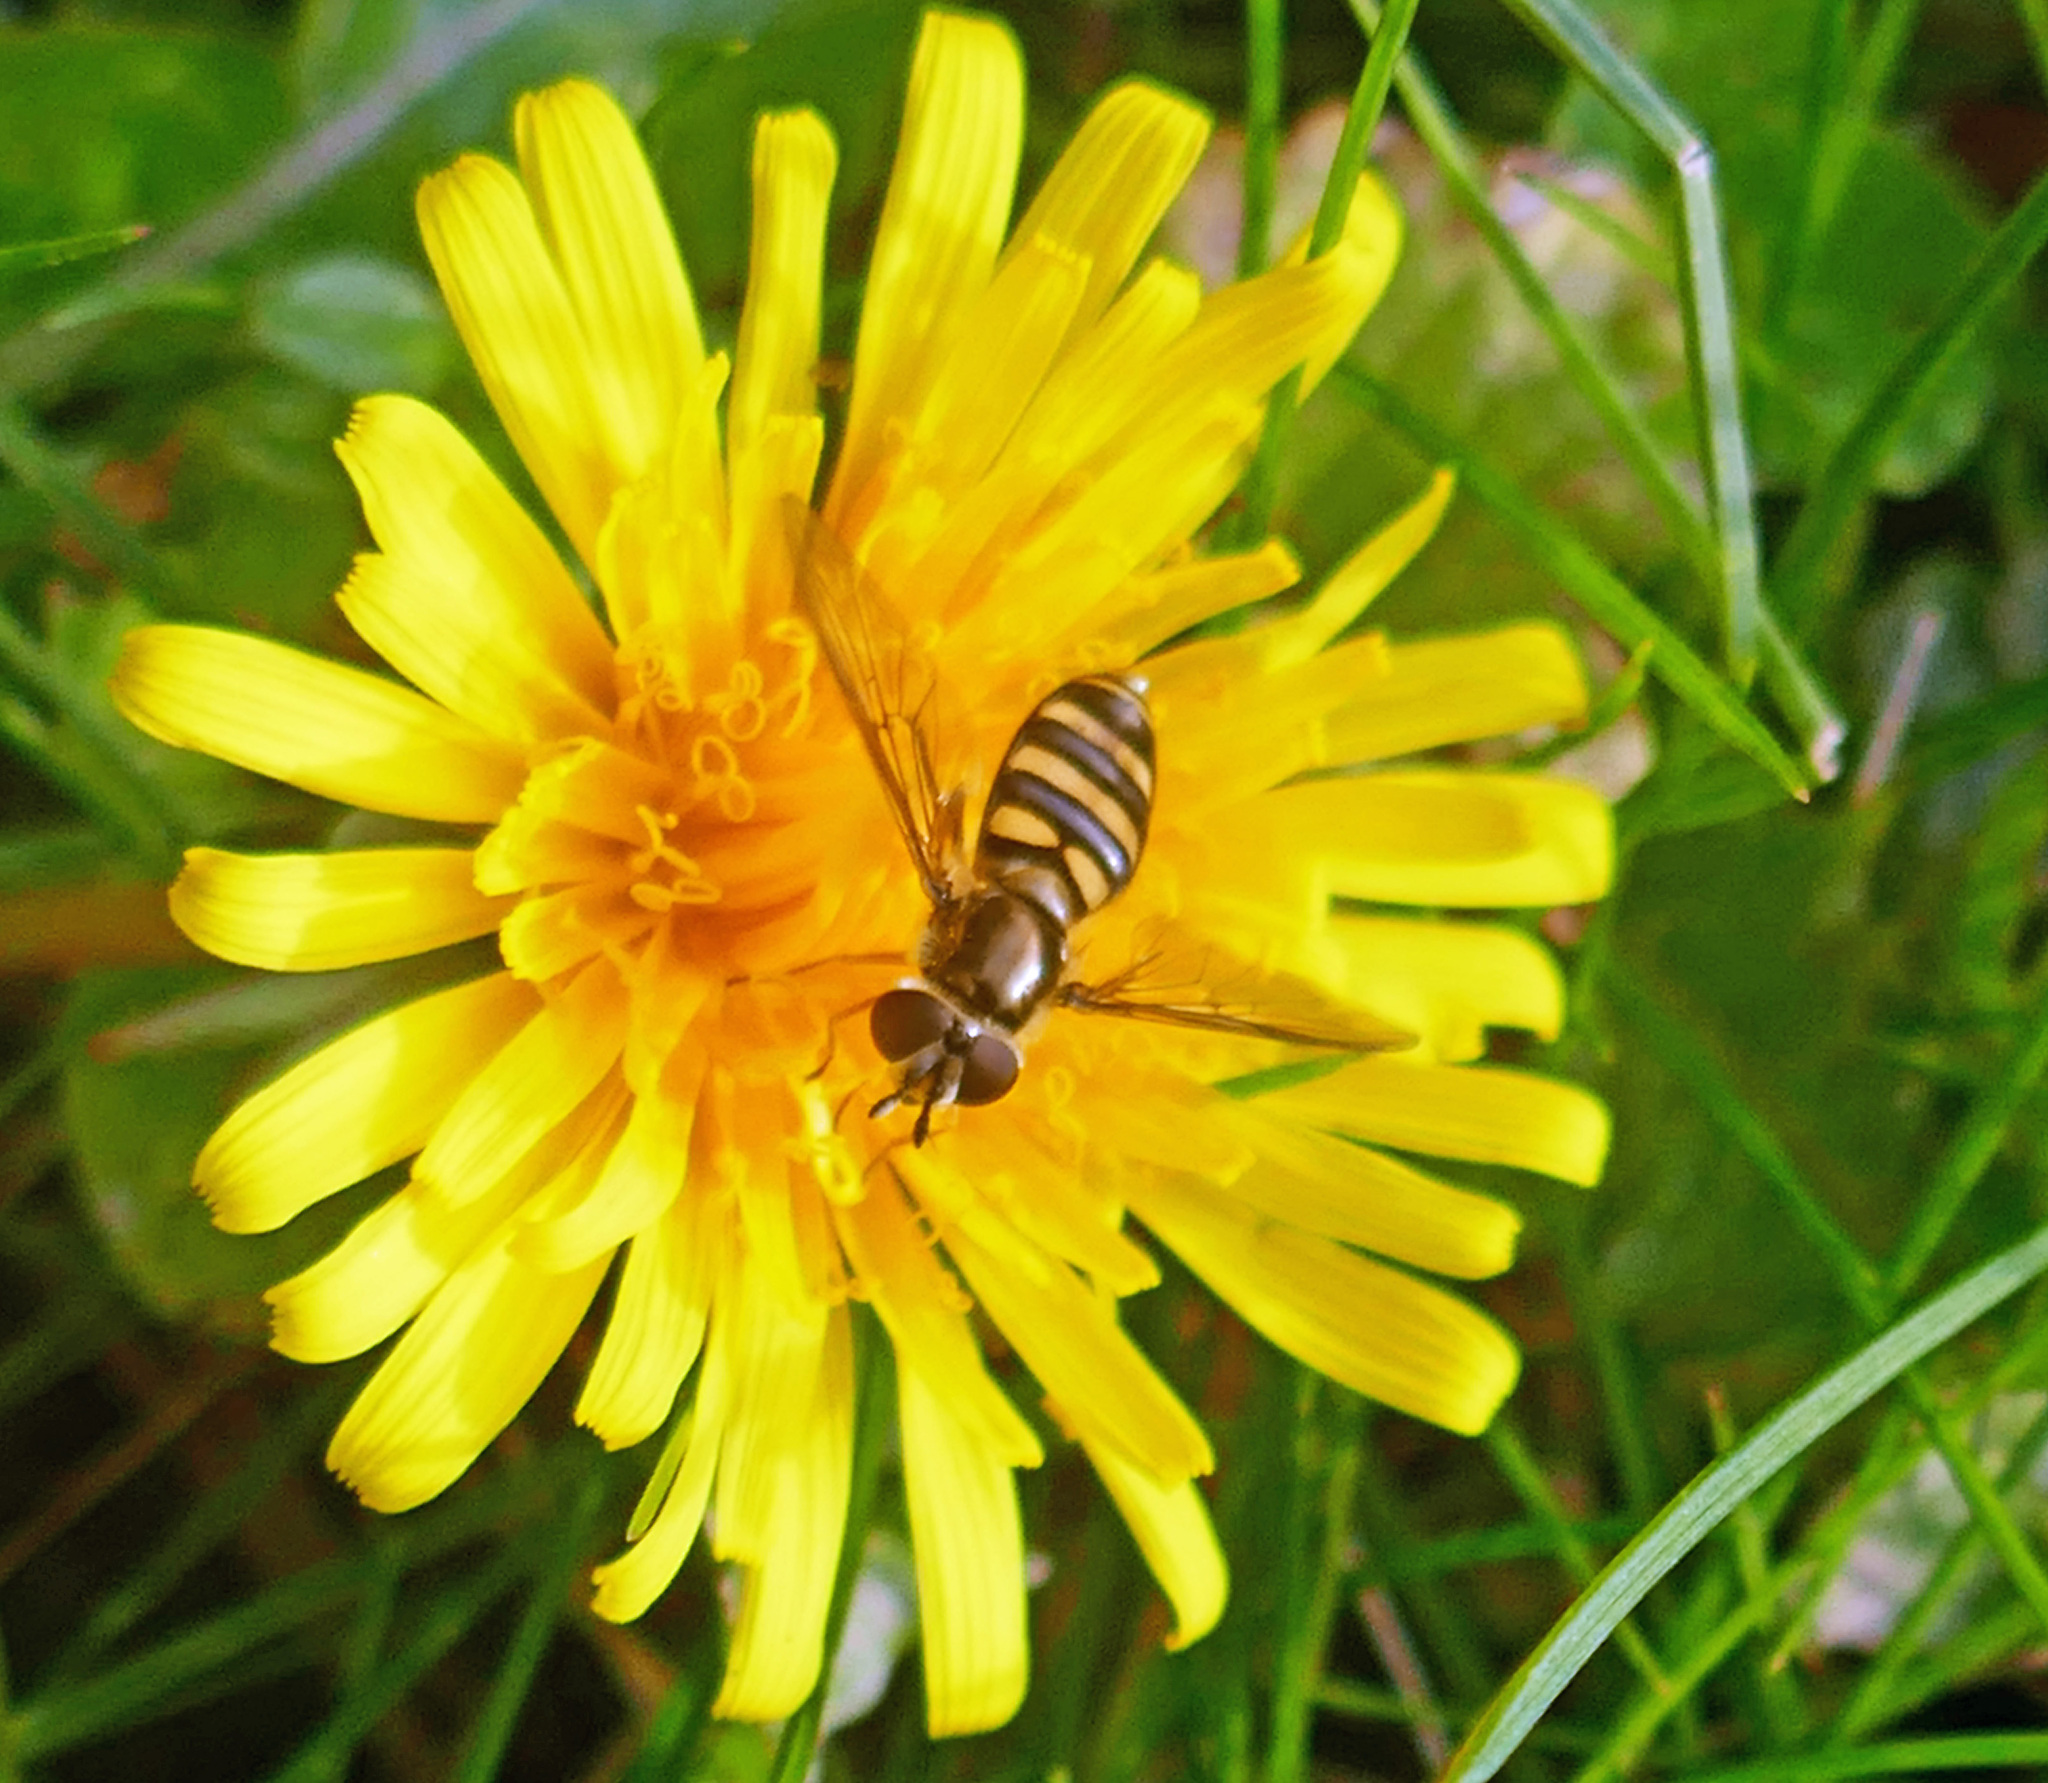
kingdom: Animalia
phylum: Arthropoda
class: Insecta
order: Diptera
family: Syrphidae
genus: Eupeodes
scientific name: Eupeodes
